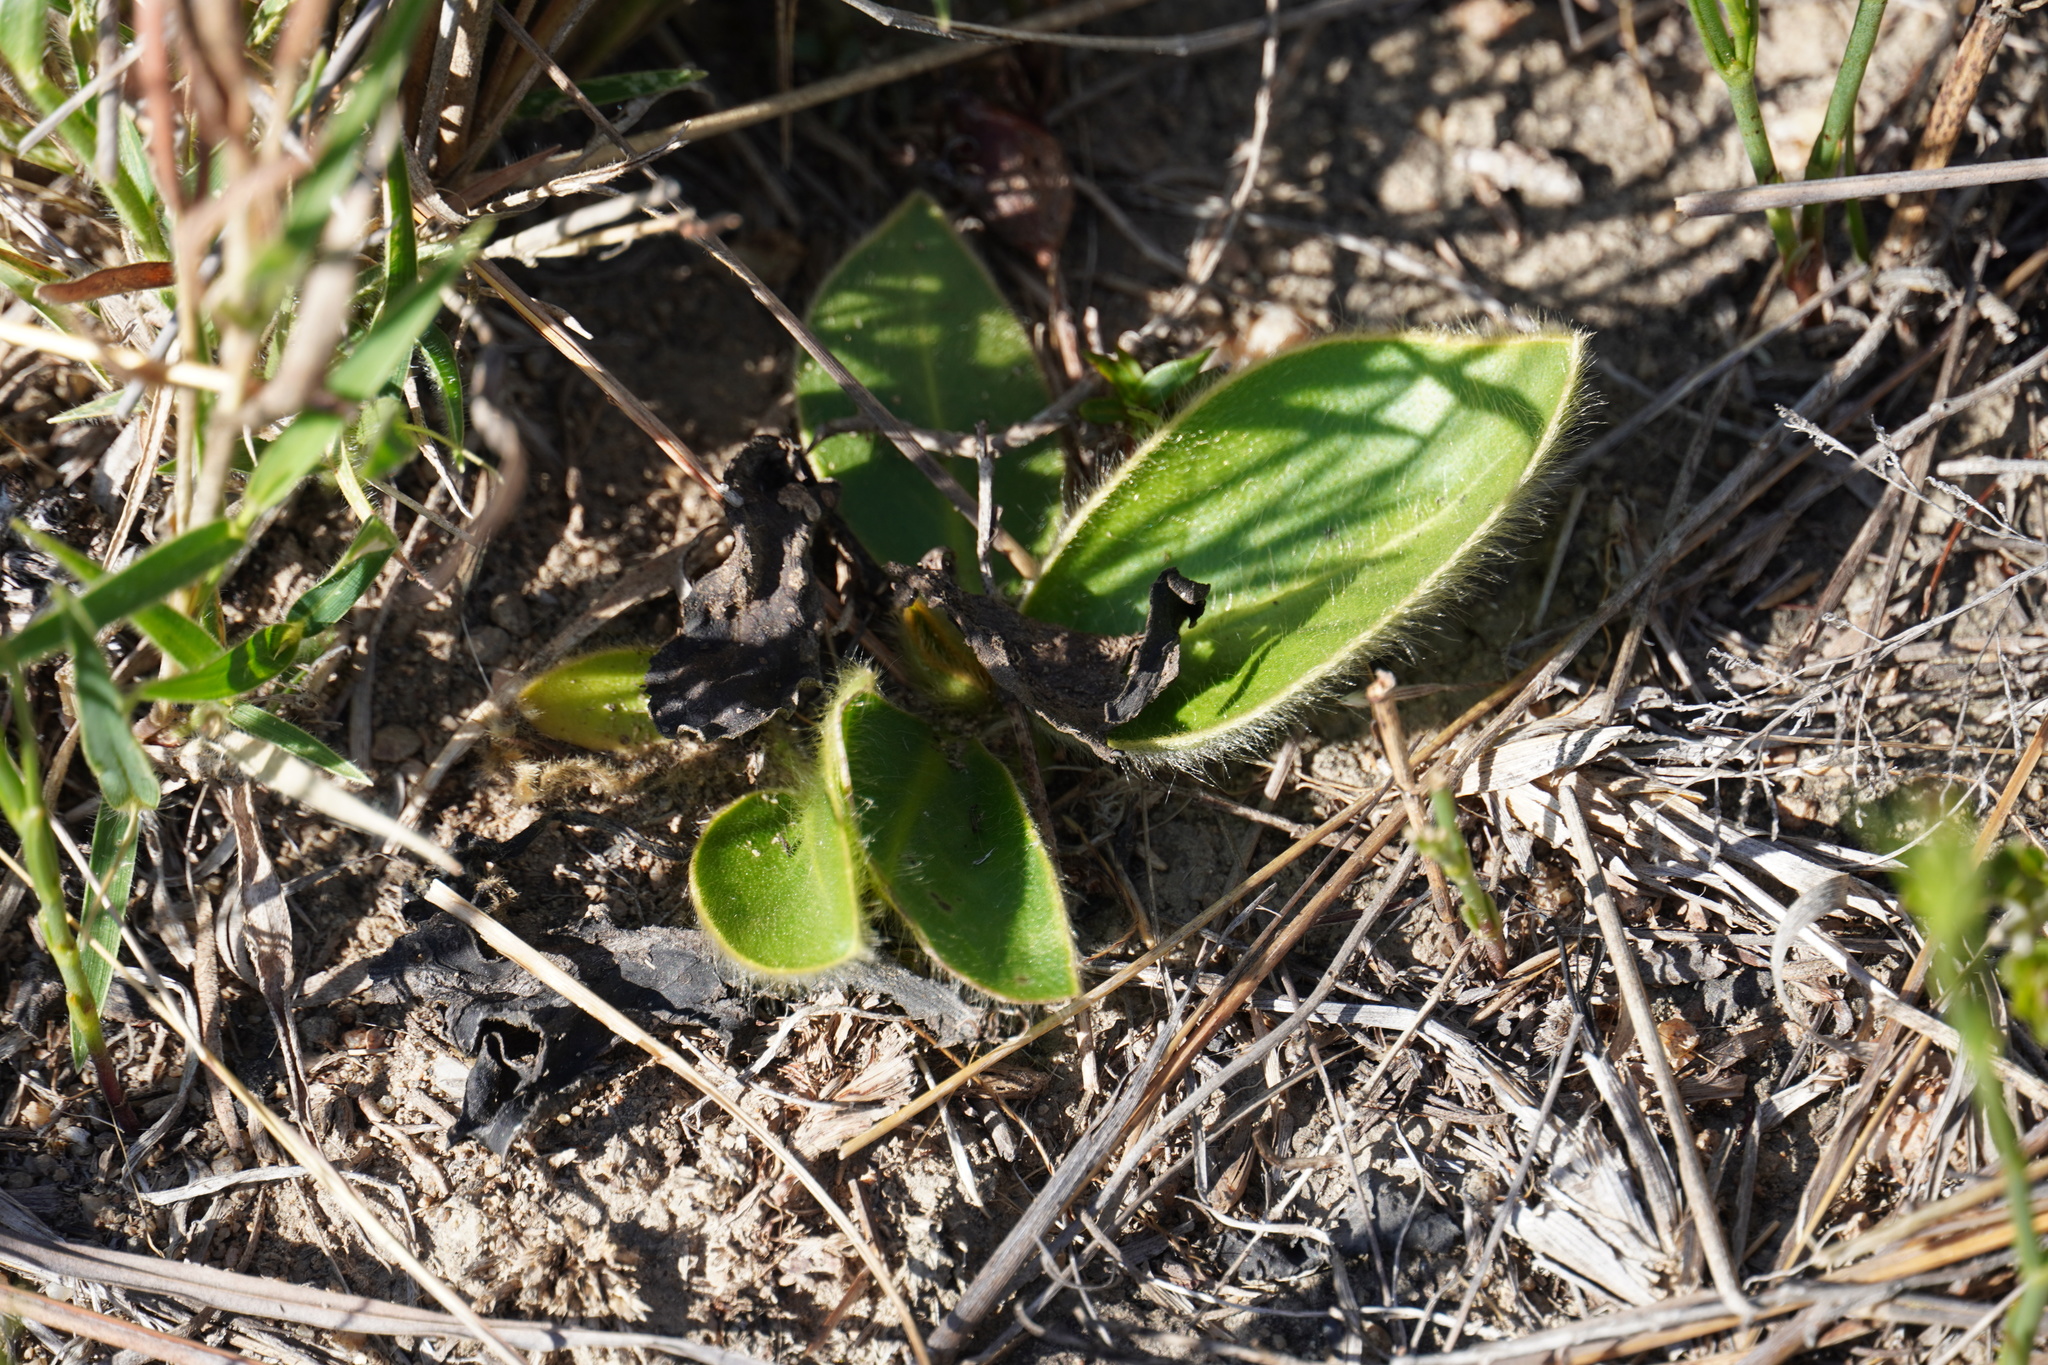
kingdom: Plantae
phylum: Tracheophyta
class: Magnoliopsida
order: Asterales
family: Asteraceae
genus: Piloselloides
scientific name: Piloselloides hirsuta
